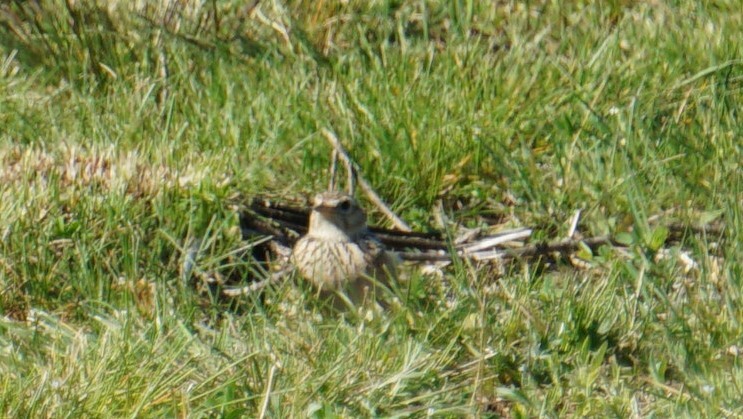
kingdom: Animalia
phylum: Chordata
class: Aves
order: Passeriformes
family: Alaudidae
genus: Alauda
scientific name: Alauda arvensis
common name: Eurasian skylark
